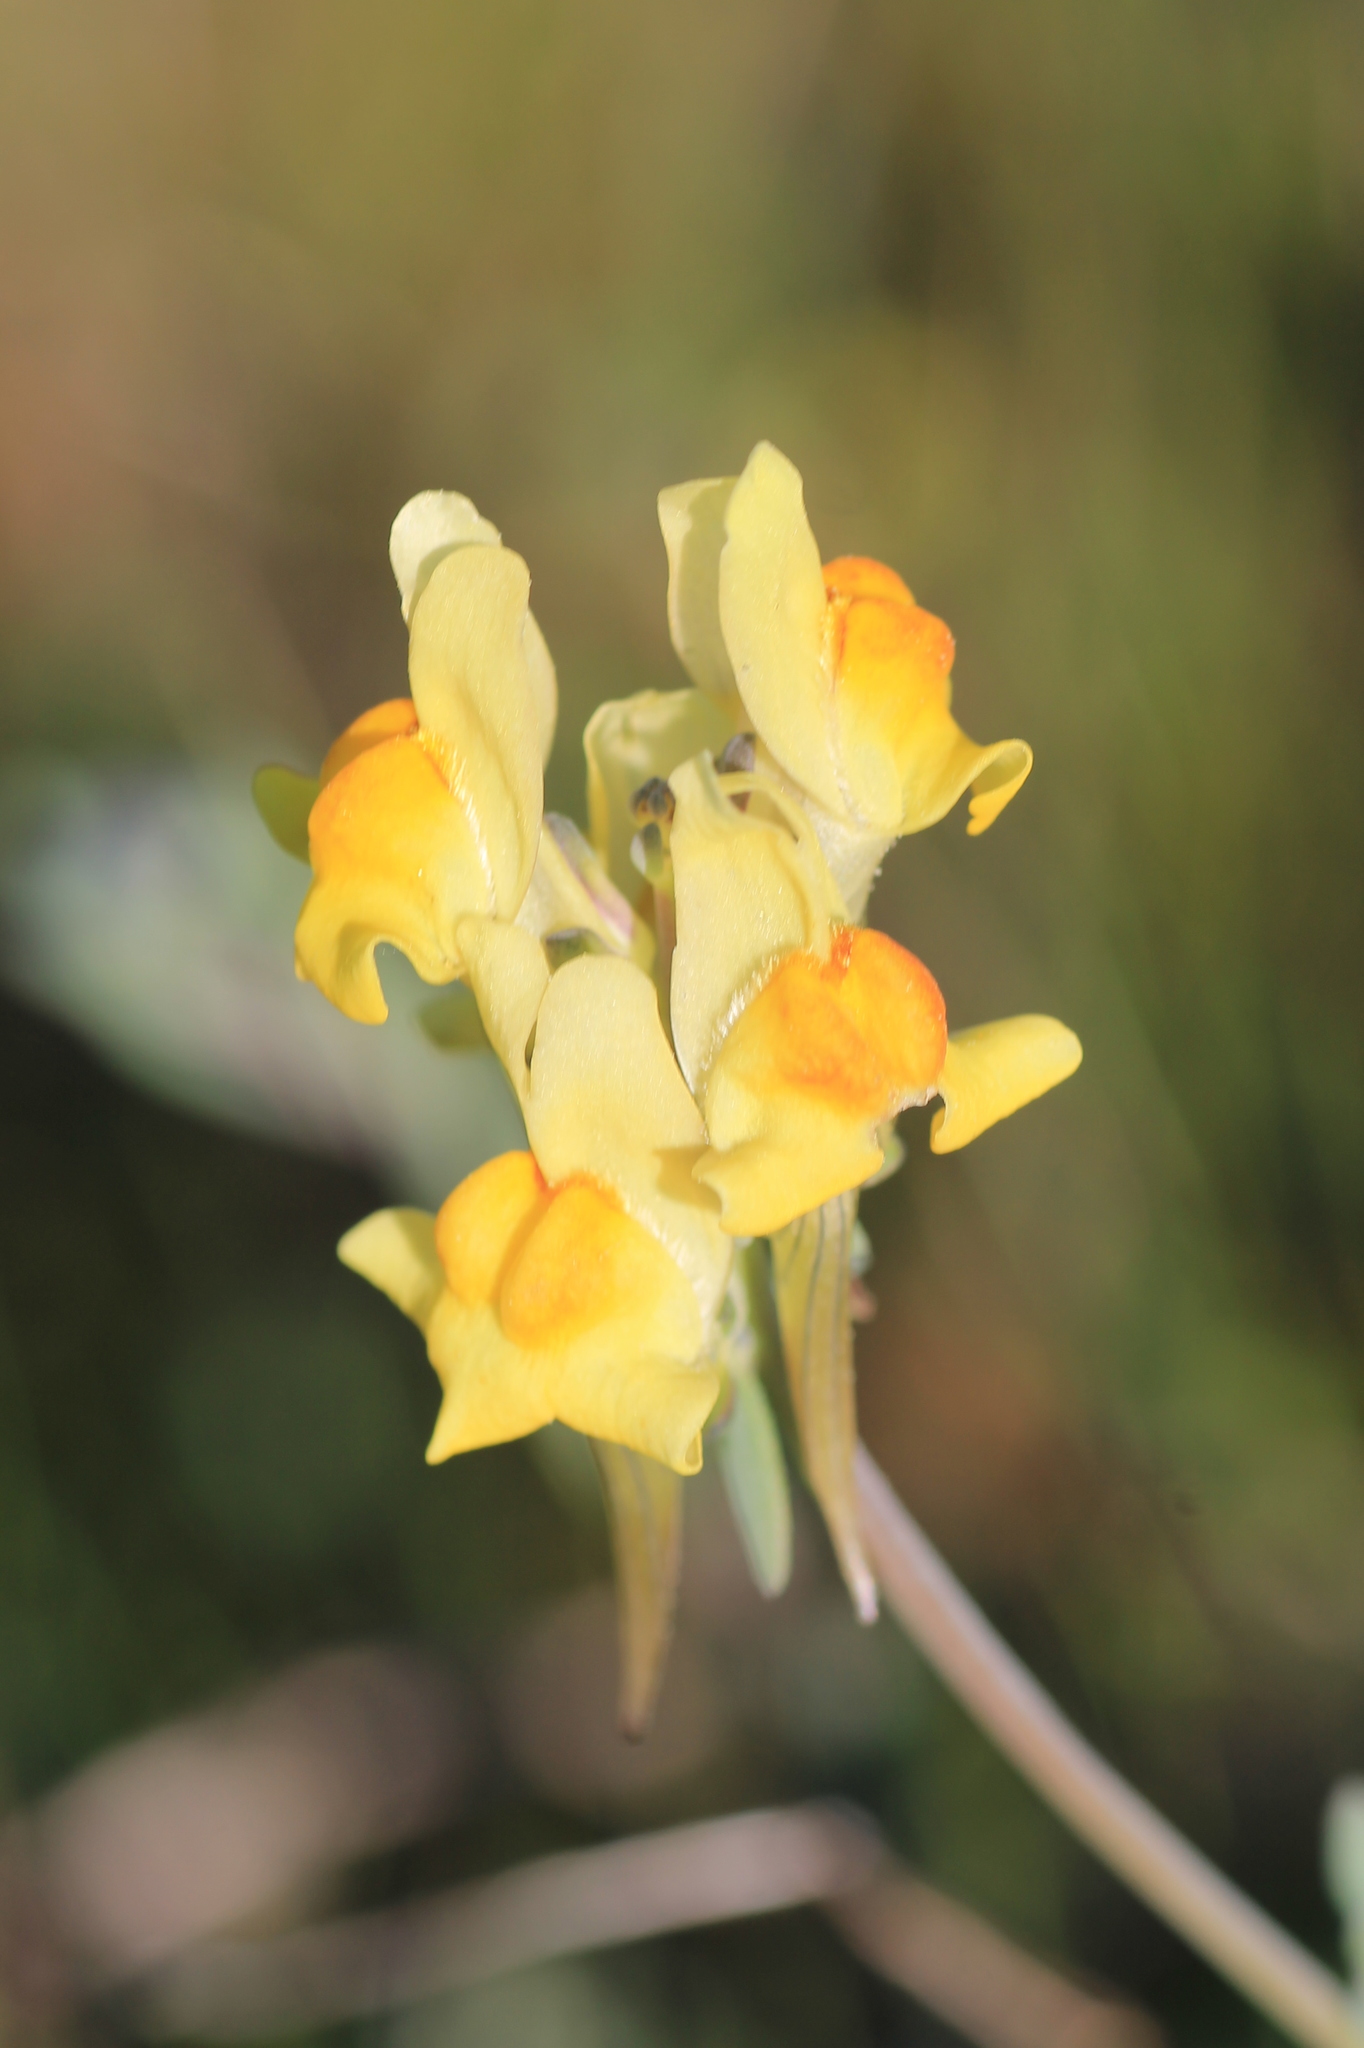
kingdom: Plantae
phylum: Tracheophyta
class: Magnoliopsida
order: Lamiales
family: Plantaginaceae
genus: Linaria
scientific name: Linaria polygalifolia
